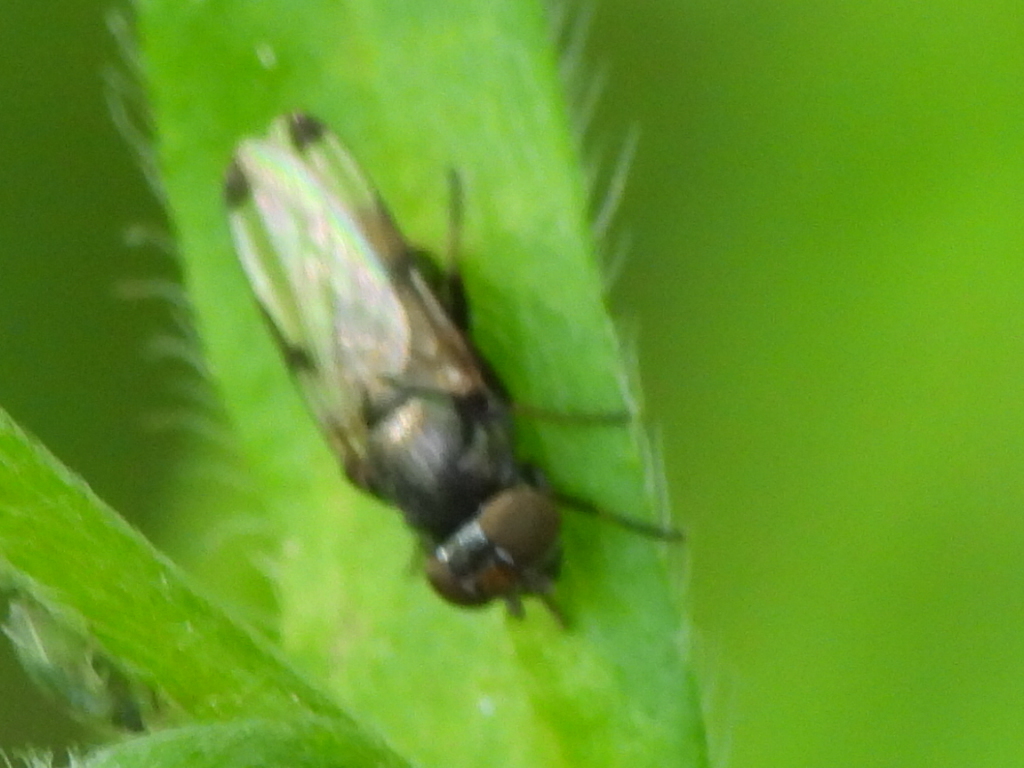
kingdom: Animalia
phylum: Arthropoda
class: Insecta
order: Diptera
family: Ulidiidae
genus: Euxesta
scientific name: Euxesta notata
